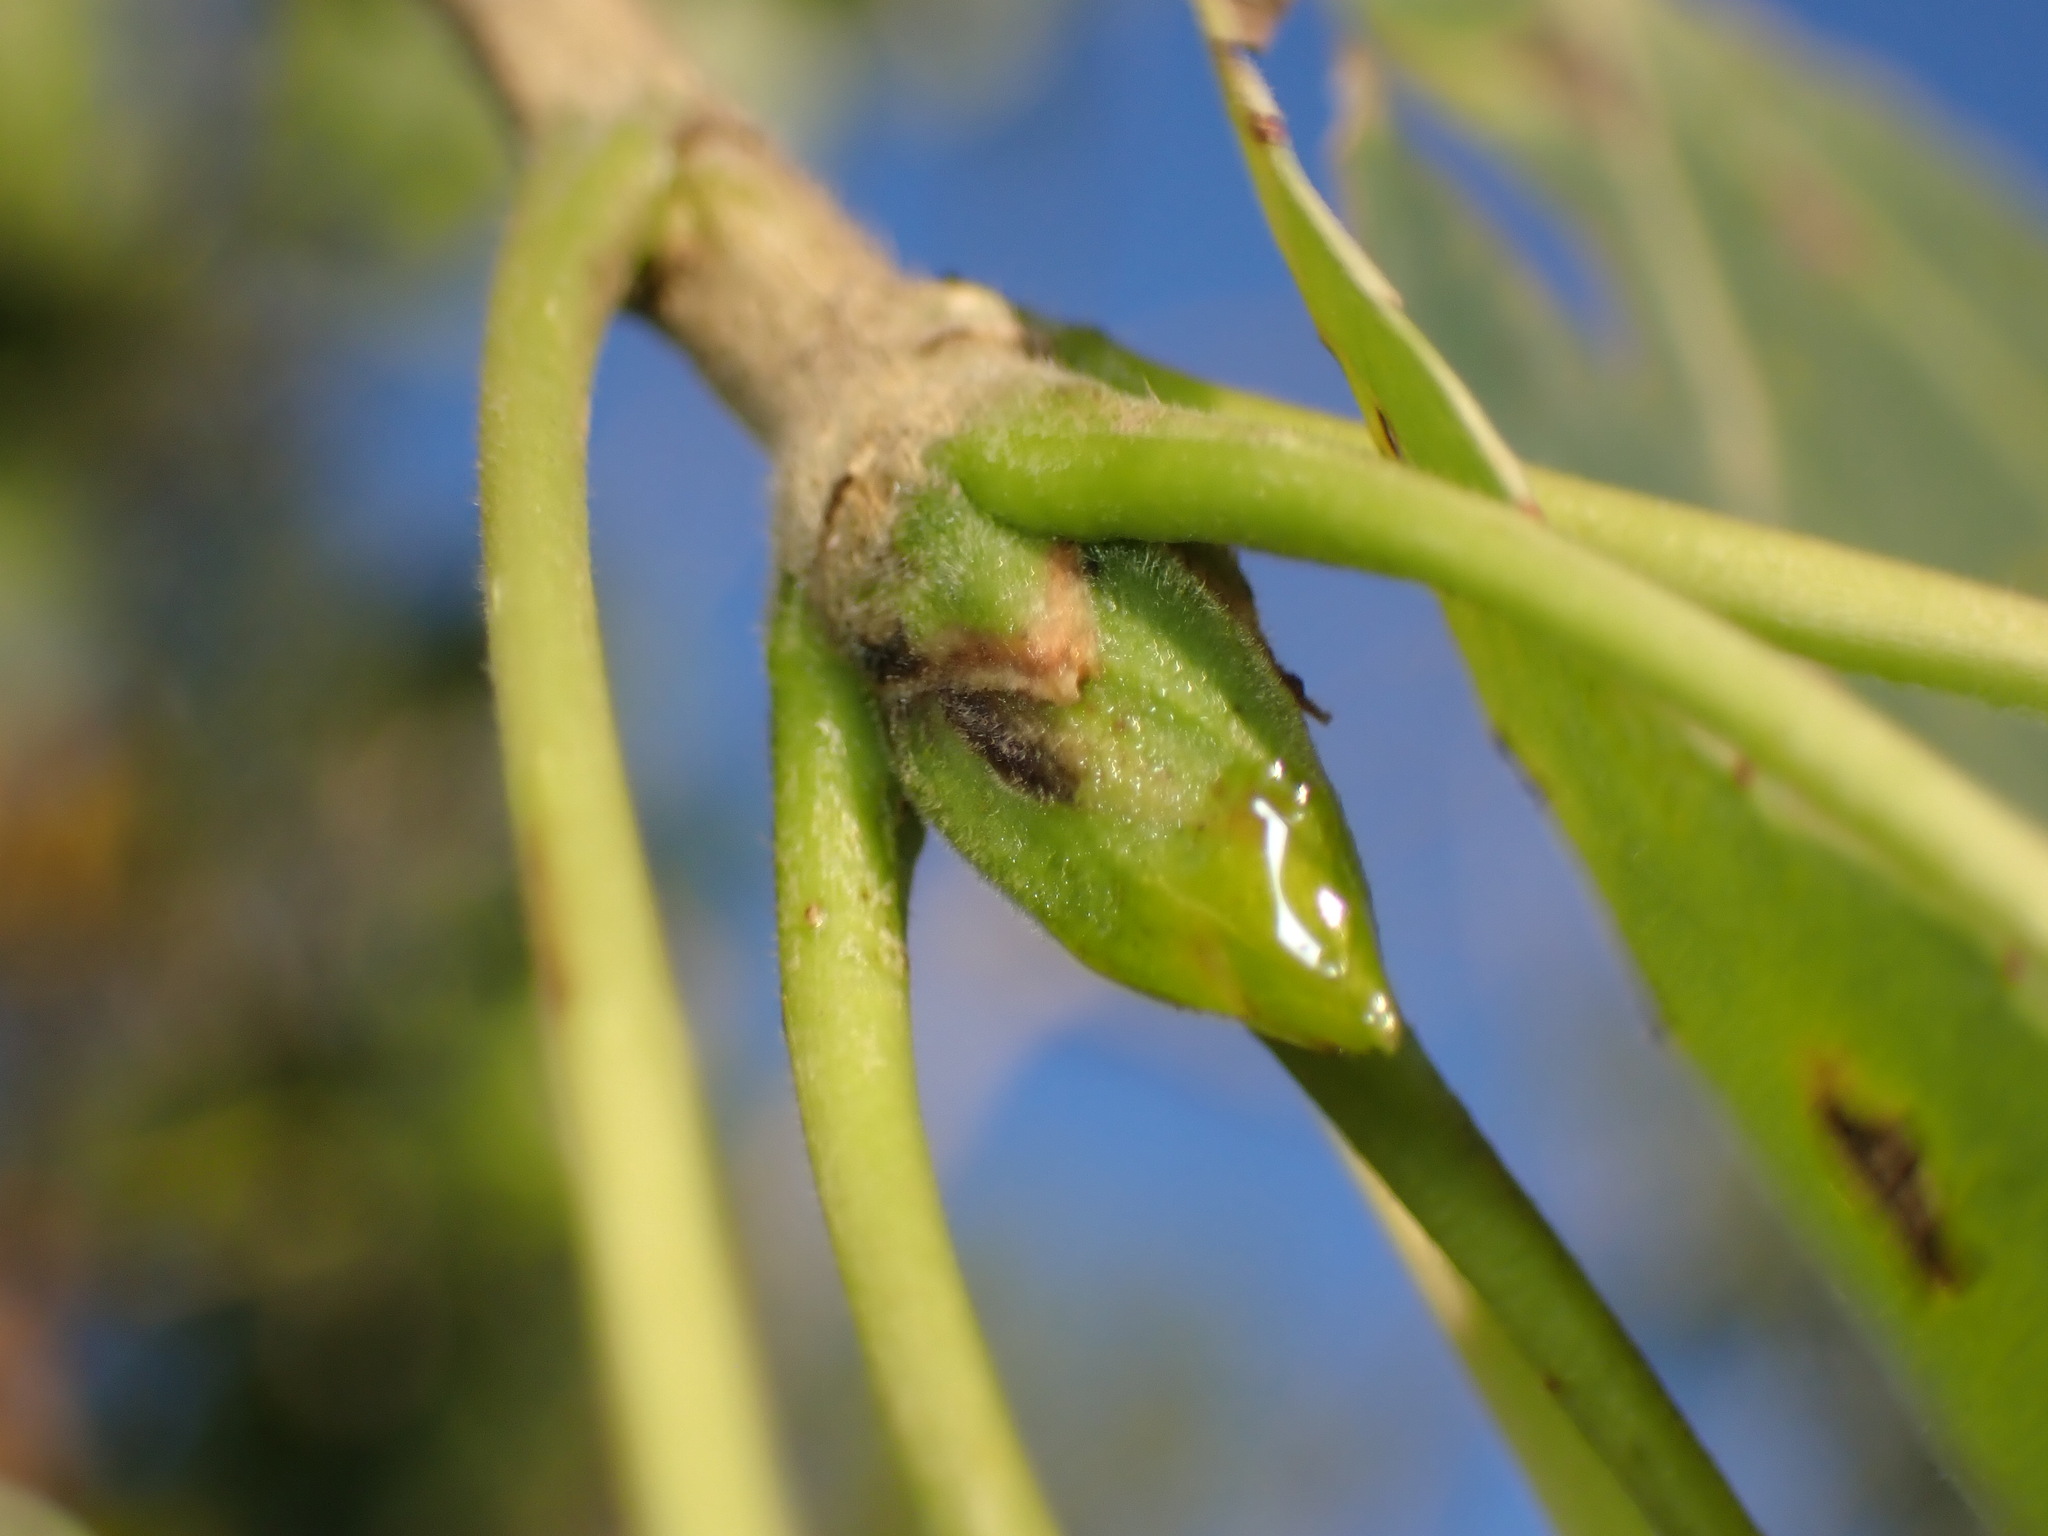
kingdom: Plantae
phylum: Tracheophyta
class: Magnoliopsida
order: Malpighiales
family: Salicaceae
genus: Populus
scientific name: Populus fremontii
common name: Fremont's cottonwood
